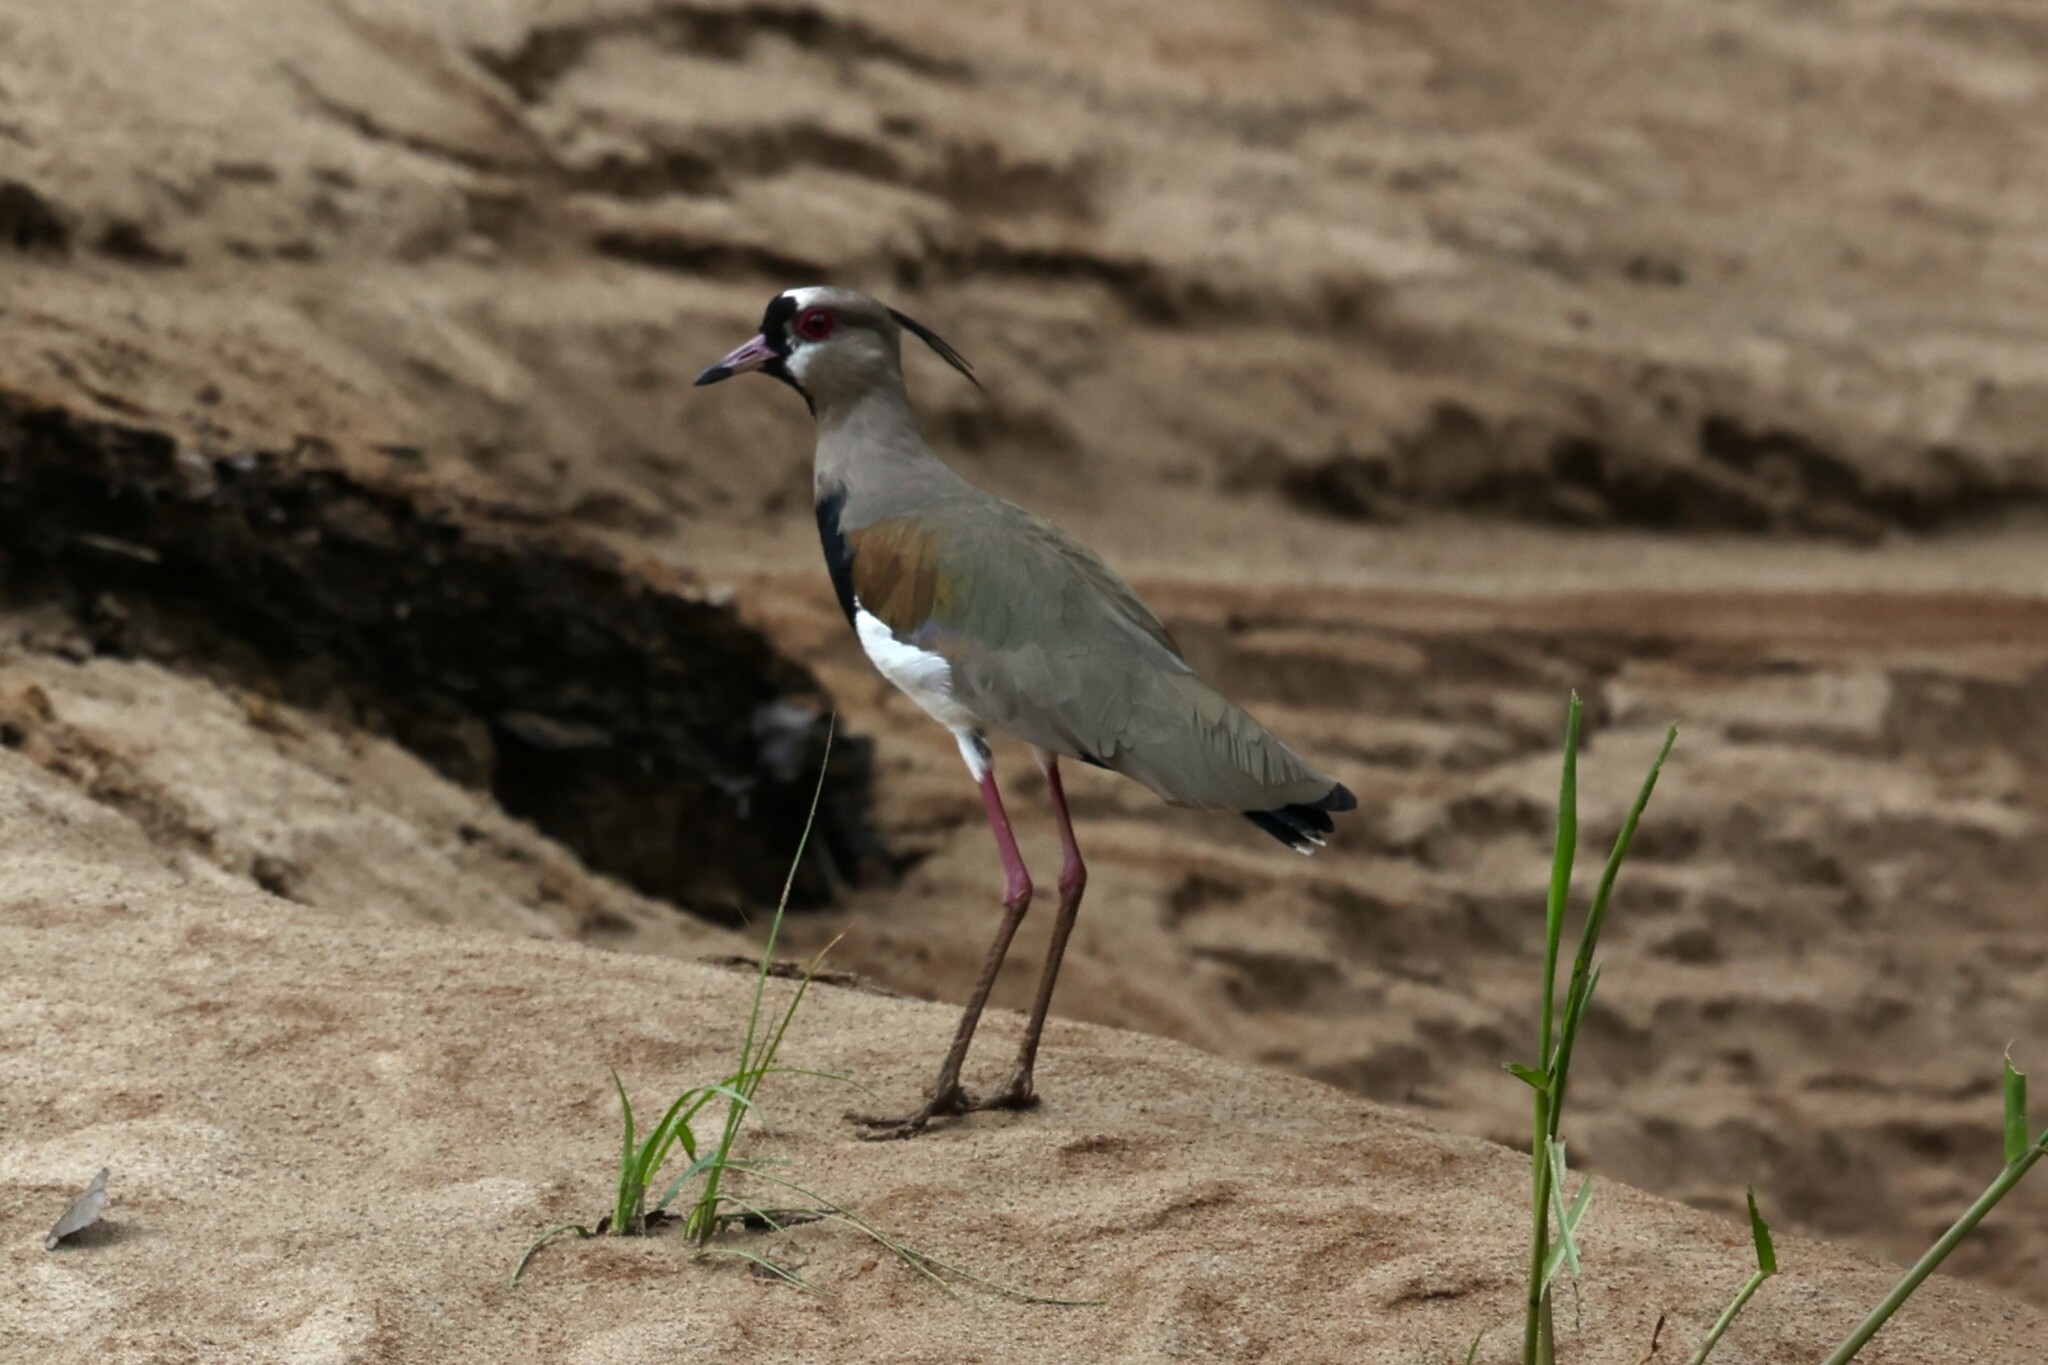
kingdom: Animalia
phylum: Chordata
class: Aves
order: Charadriiformes
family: Charadriidae
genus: Vanellus
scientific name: Vanellus chilensis
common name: Southern lapwing
